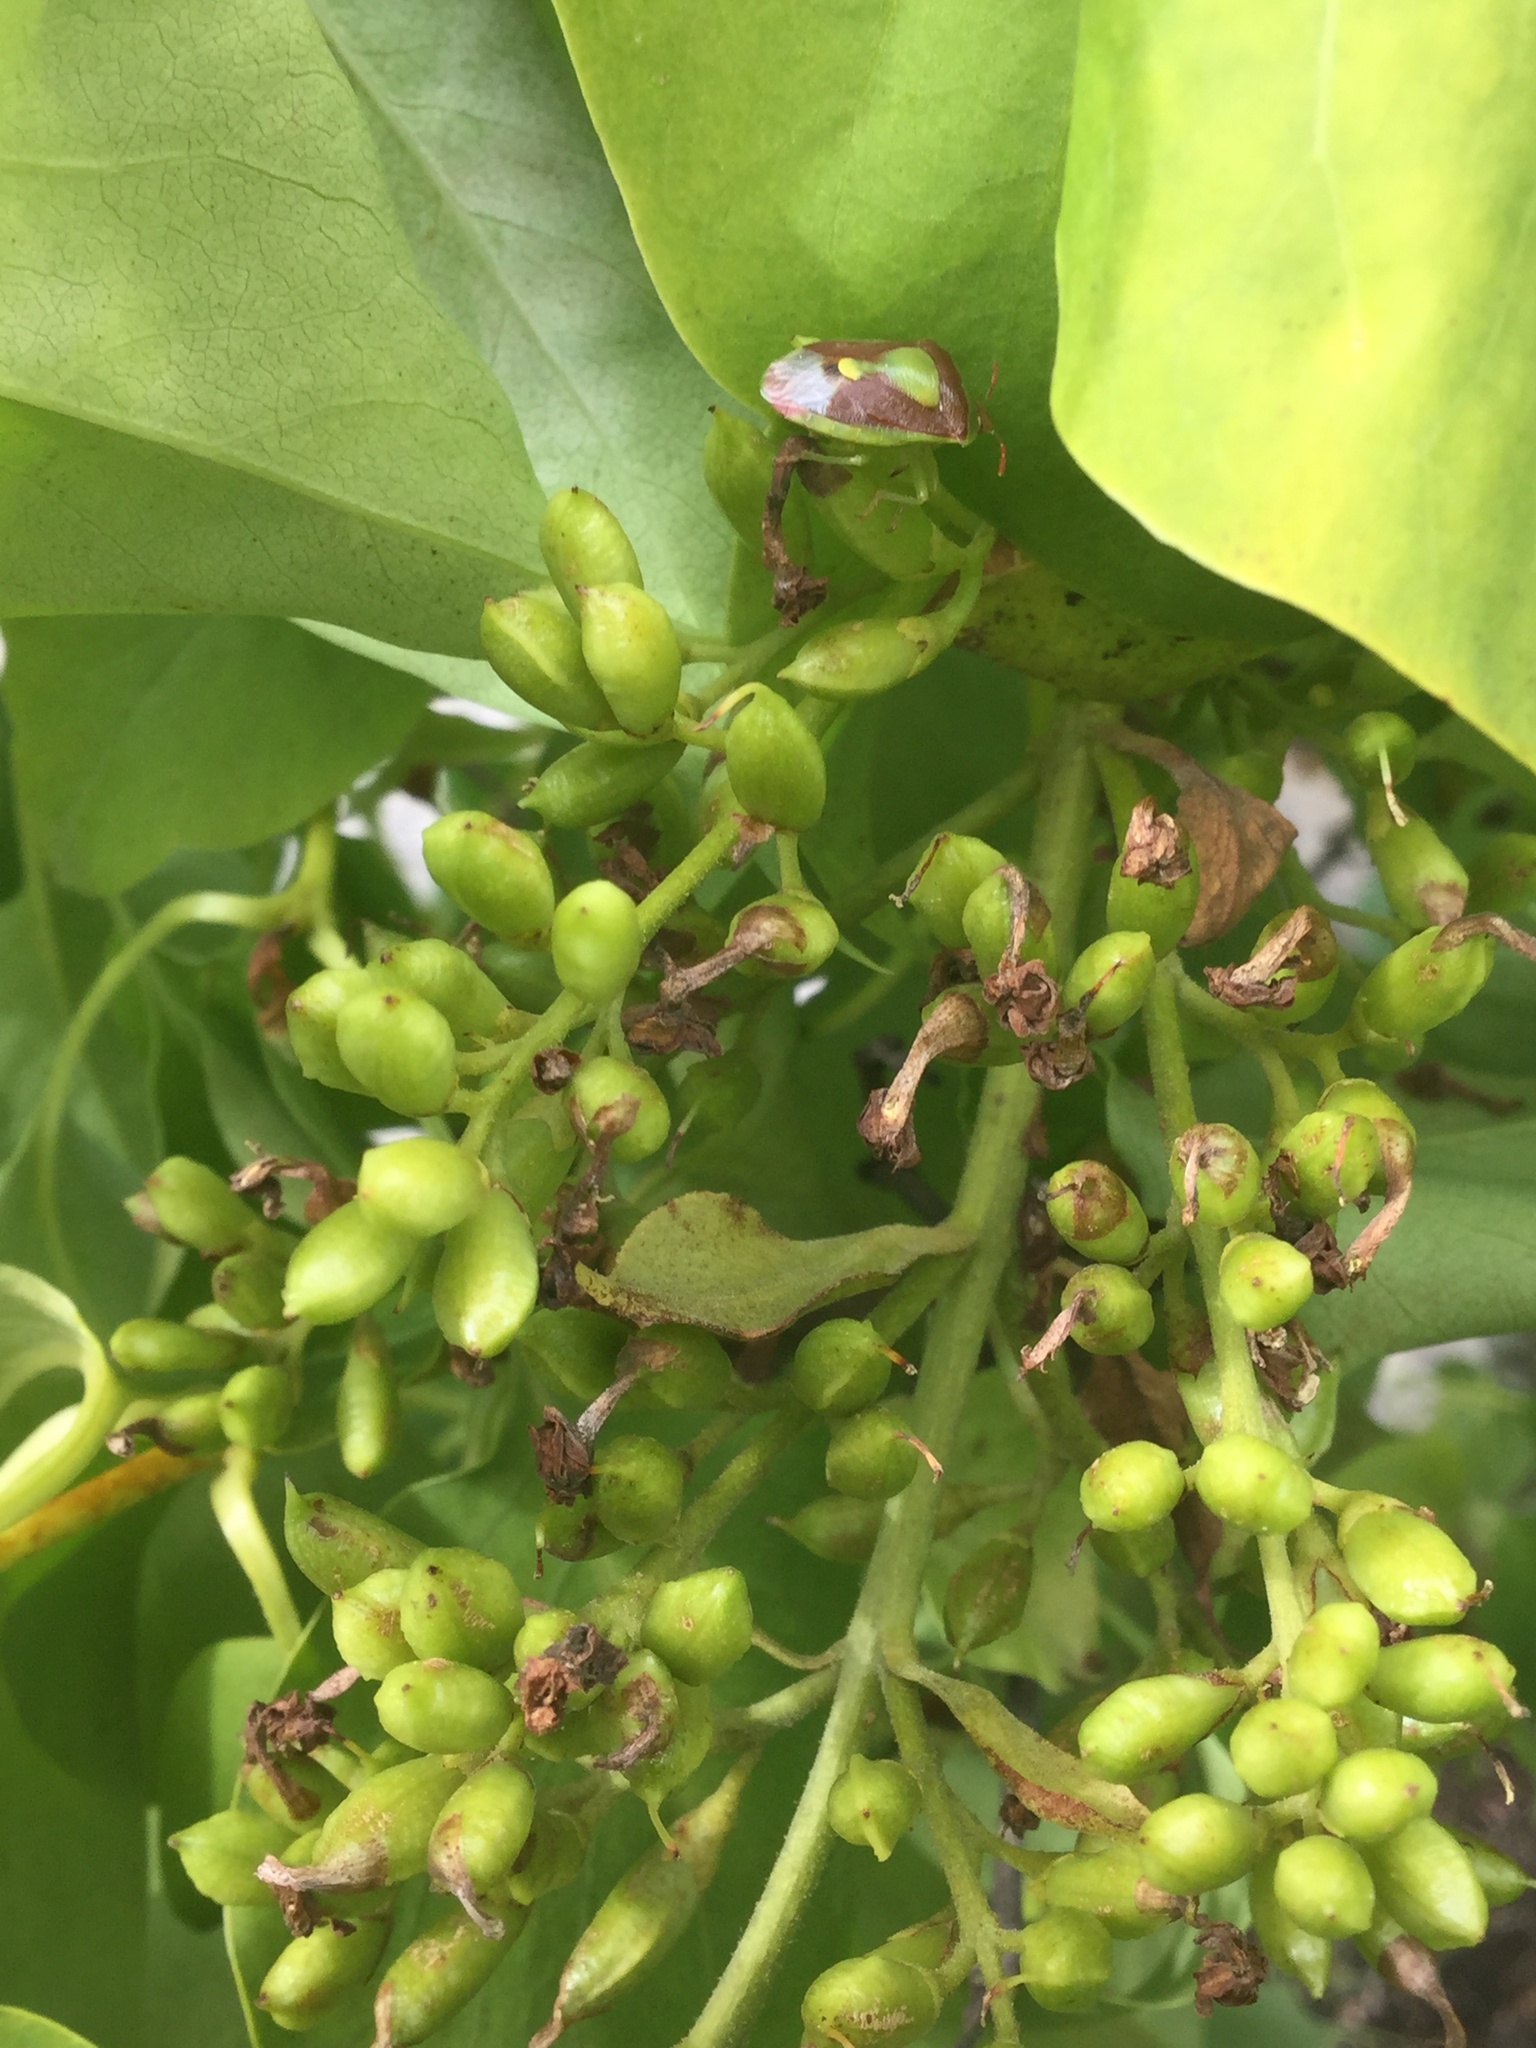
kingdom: Animalia
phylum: Arthropoda
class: Insecta
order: Hemiptera
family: Pentatomidae
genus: Banasa
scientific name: Banasa dimidiata
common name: Green burgundy stink bug
